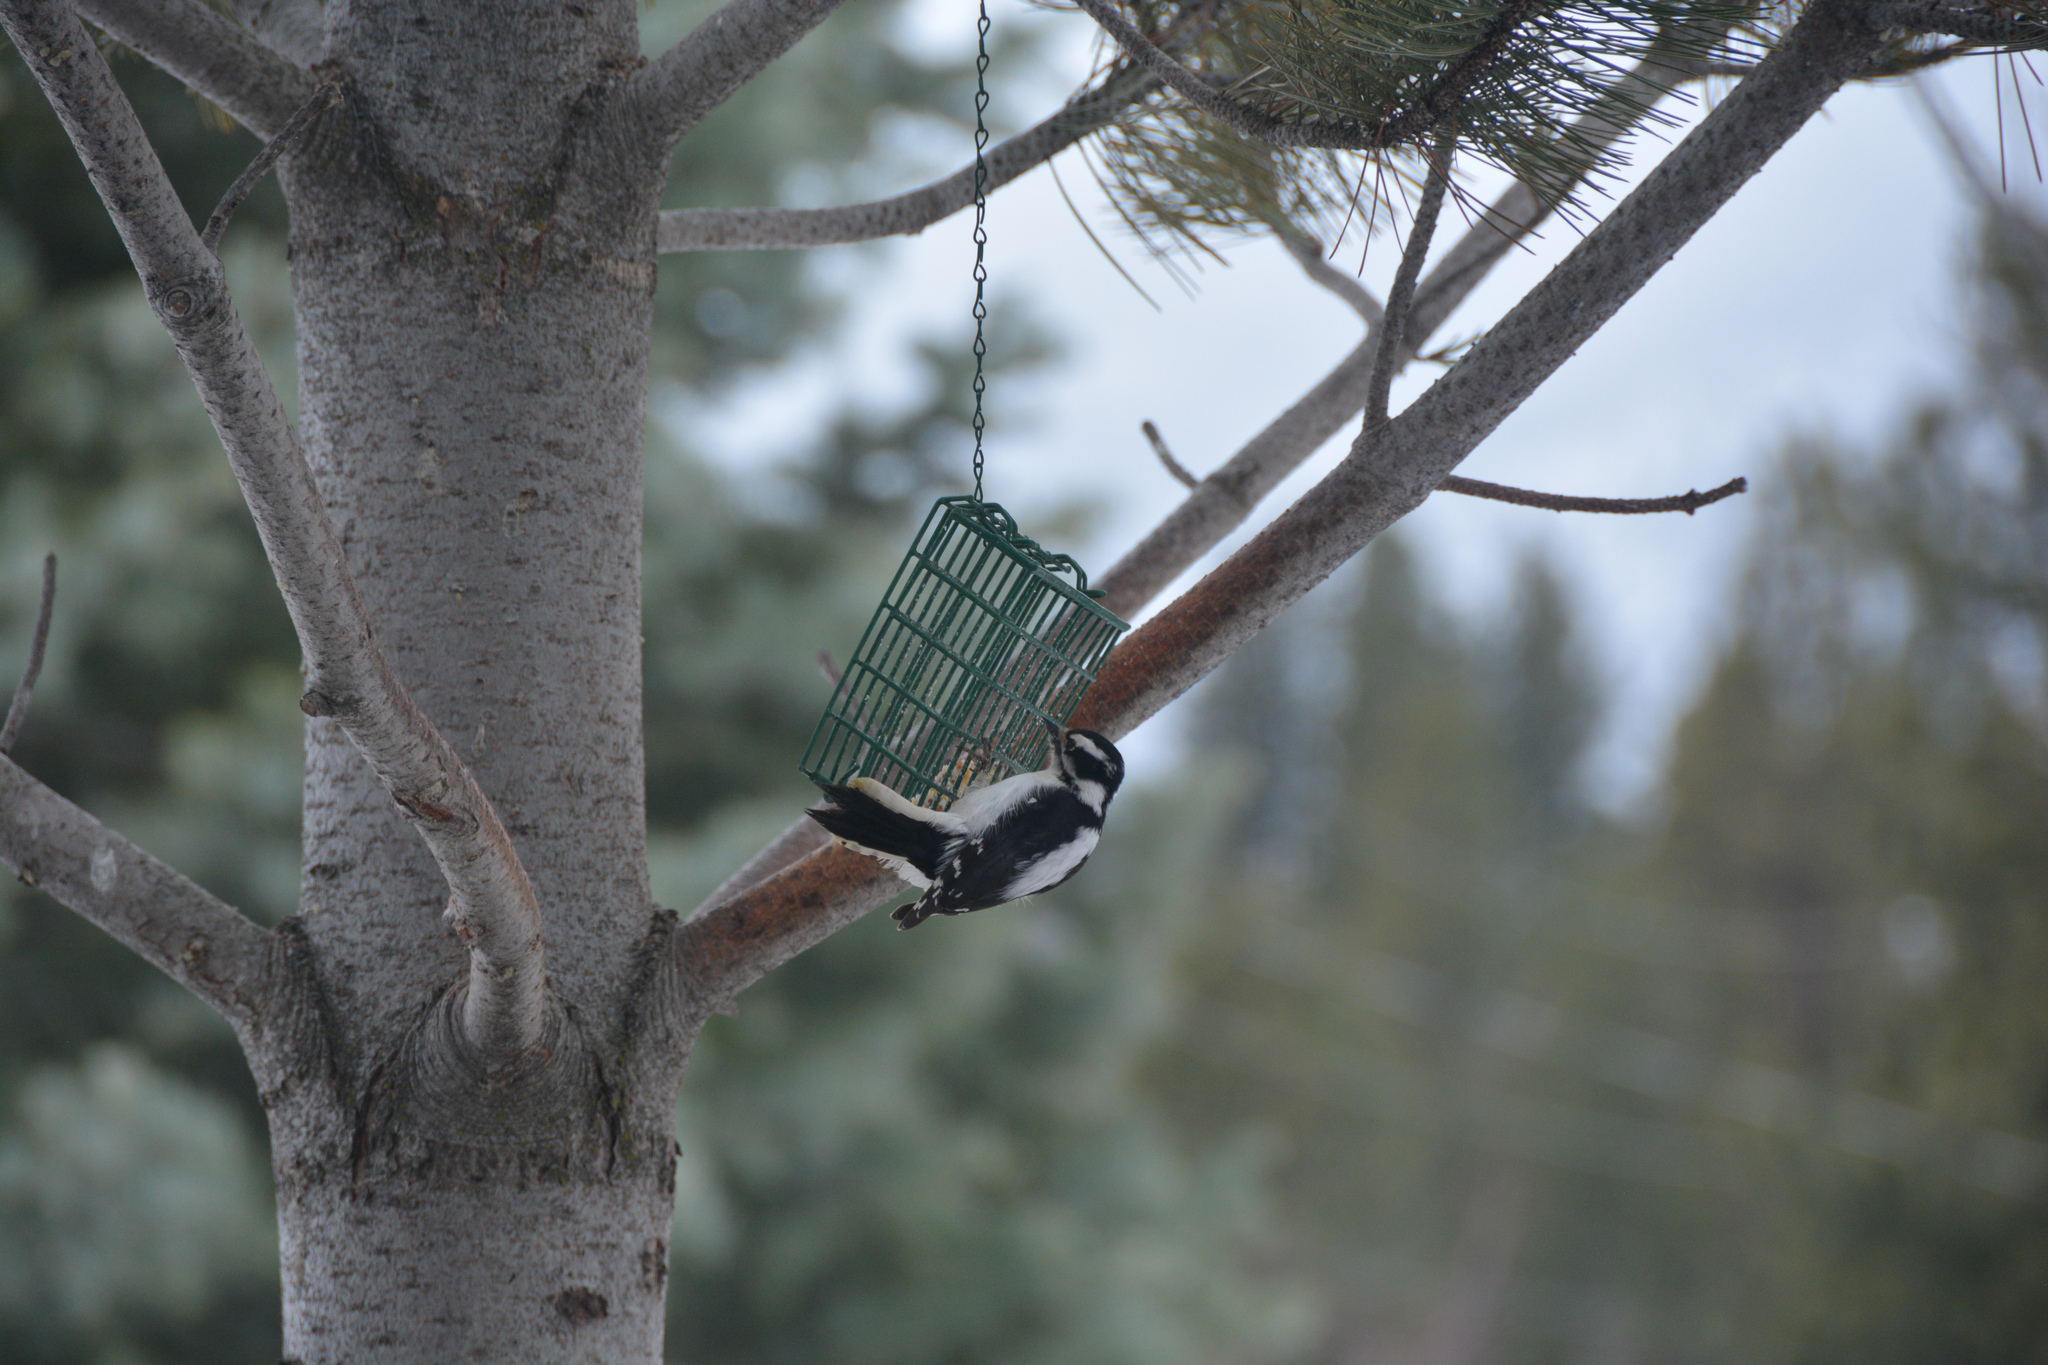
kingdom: Animalia
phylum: Chordata
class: Aves
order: Piciformes
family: Picidae
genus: Dryobates
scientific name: Dryobates pubescens
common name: Downy woodpecker
